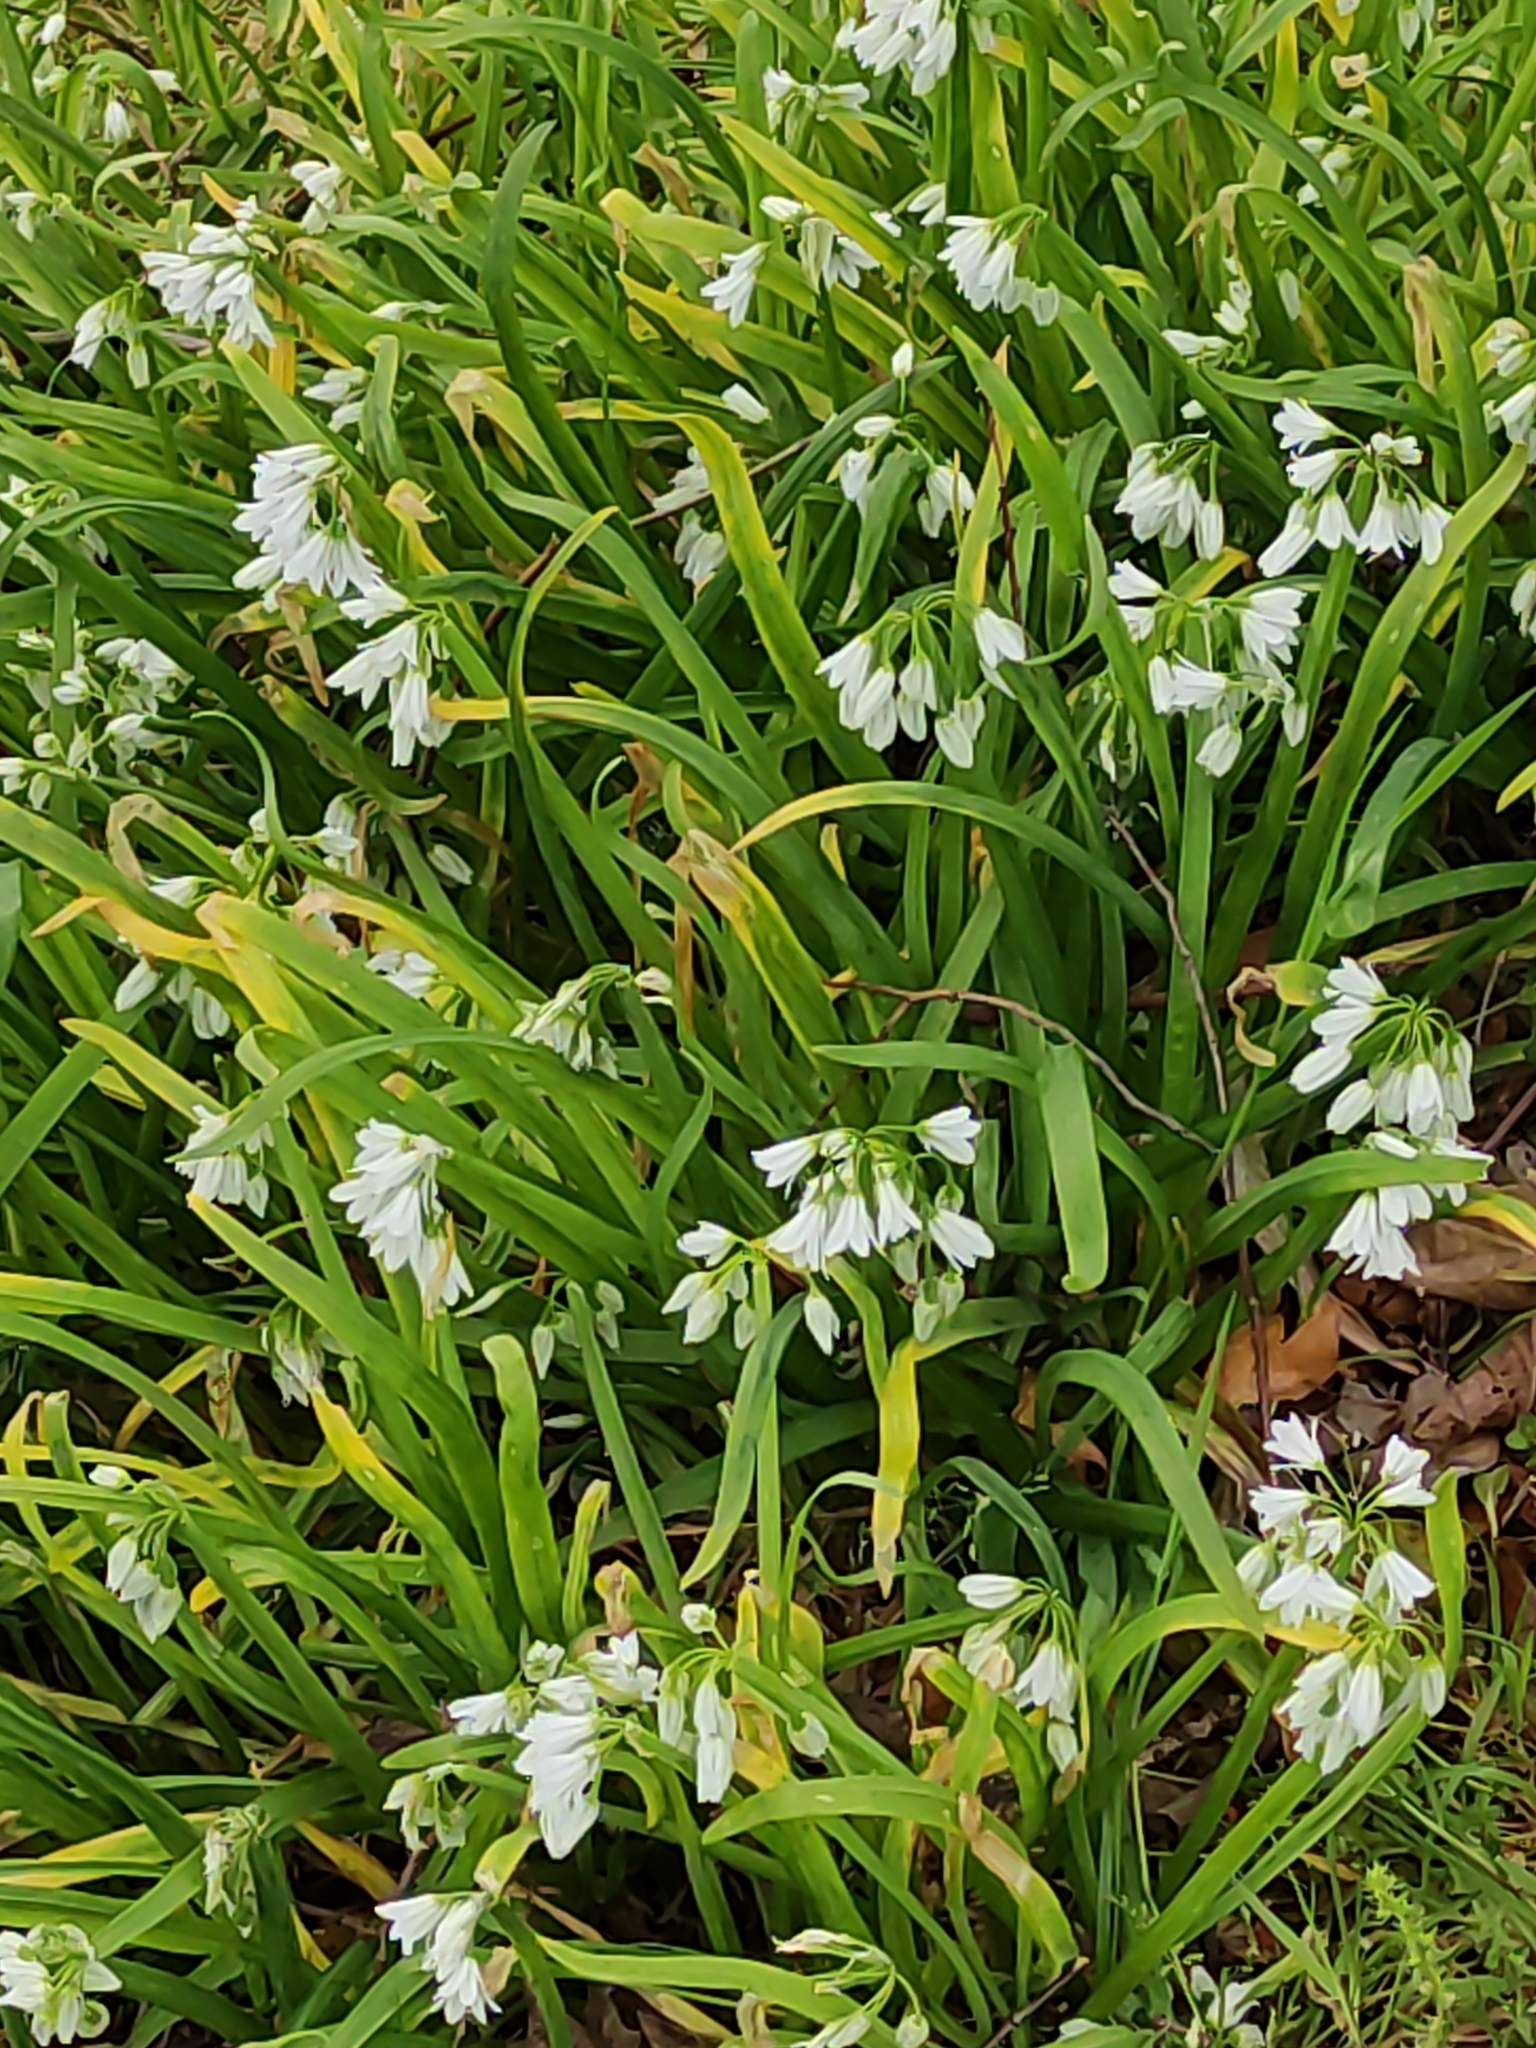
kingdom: Plantae
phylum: Tracheophyta
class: Liliopsida
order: Asparagales
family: Amaryllidaceae
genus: Allium
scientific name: Allium triquetrum
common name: Three-cornered garlic
